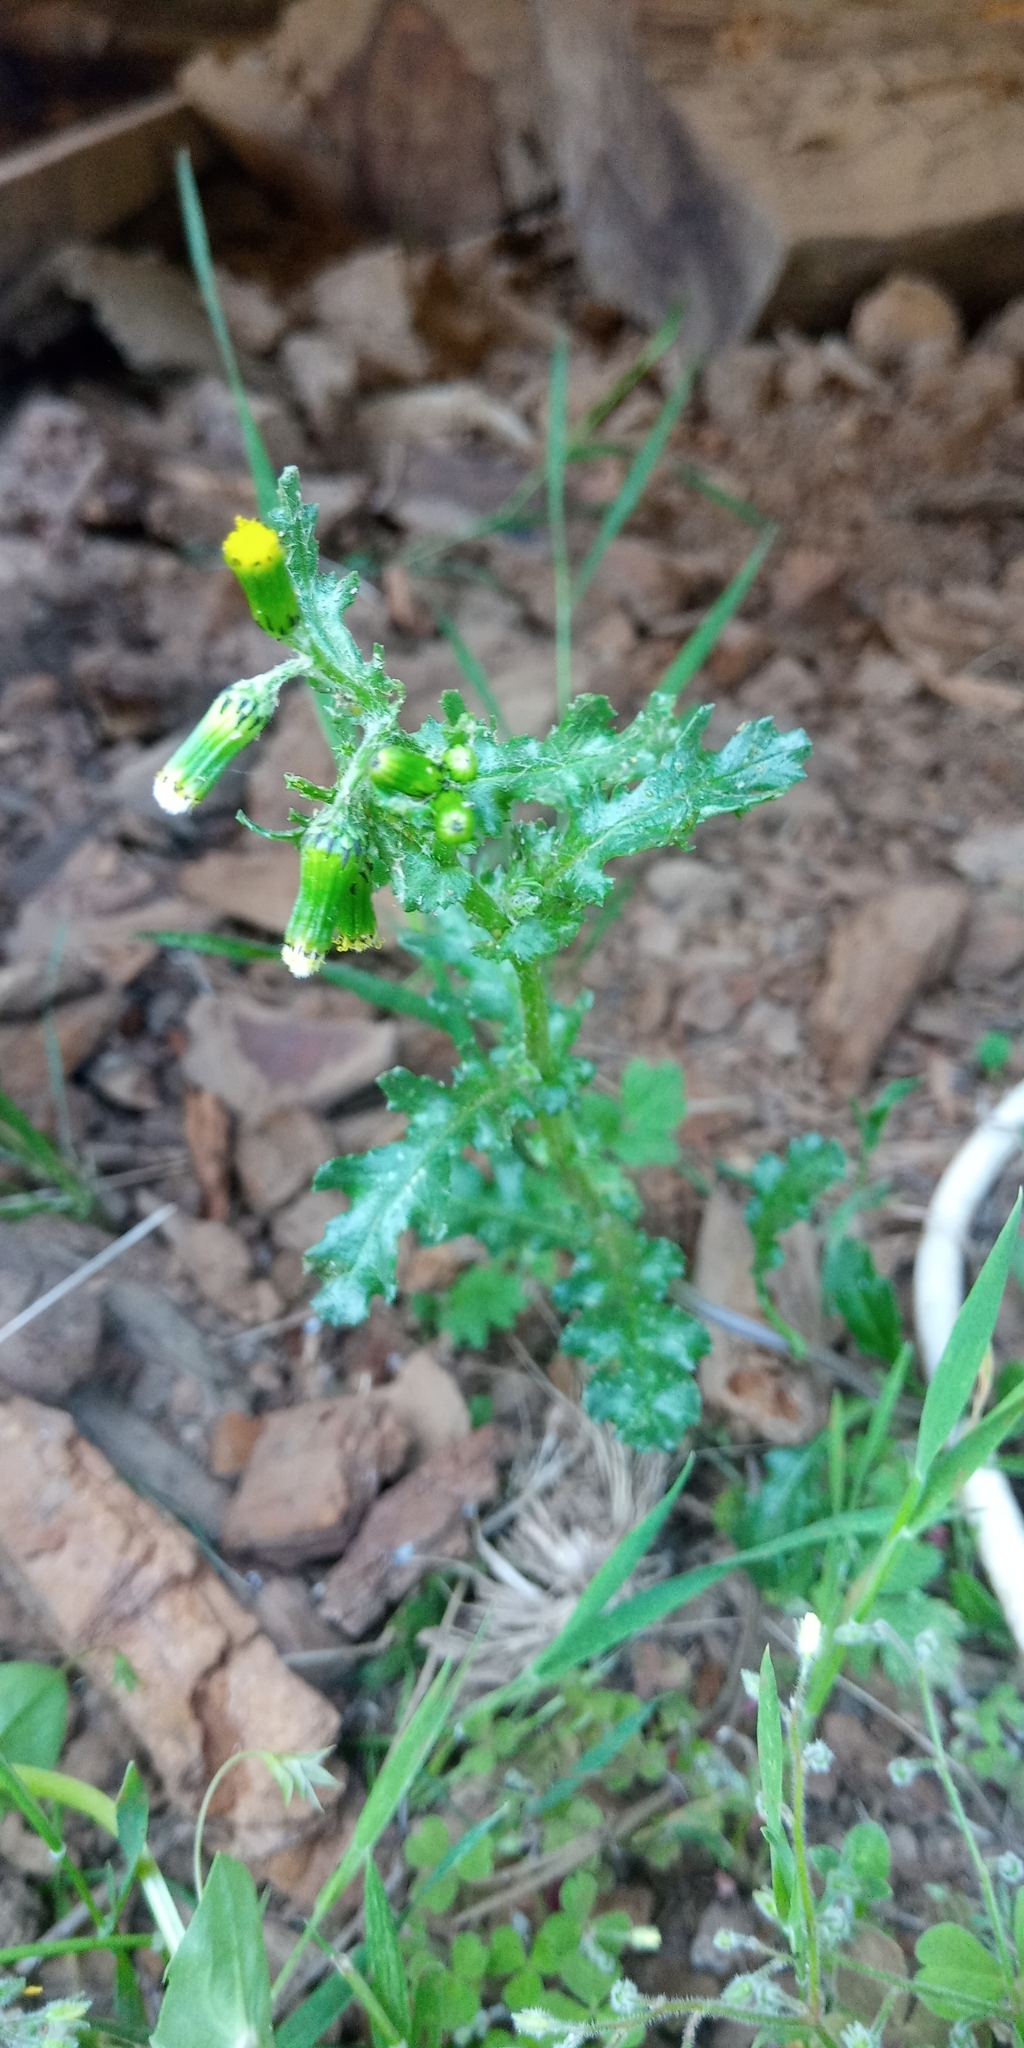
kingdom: Plantae
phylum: Tracheophyta
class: Magnoliopsida
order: Asterales
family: Asteraceae
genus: Senecio
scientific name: Senecio vulgaris
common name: Old-man-in-the-spring
